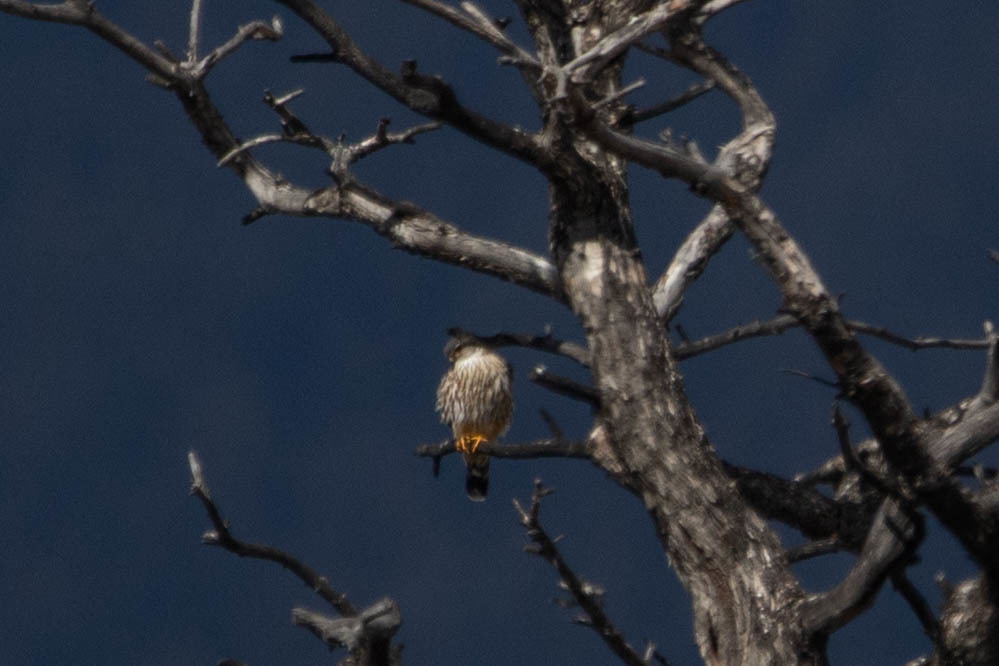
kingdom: Animalia
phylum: Chordata
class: Aves
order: Falconiformes
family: Falconidae
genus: Falco
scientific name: Falco columbarius
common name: Merlin
